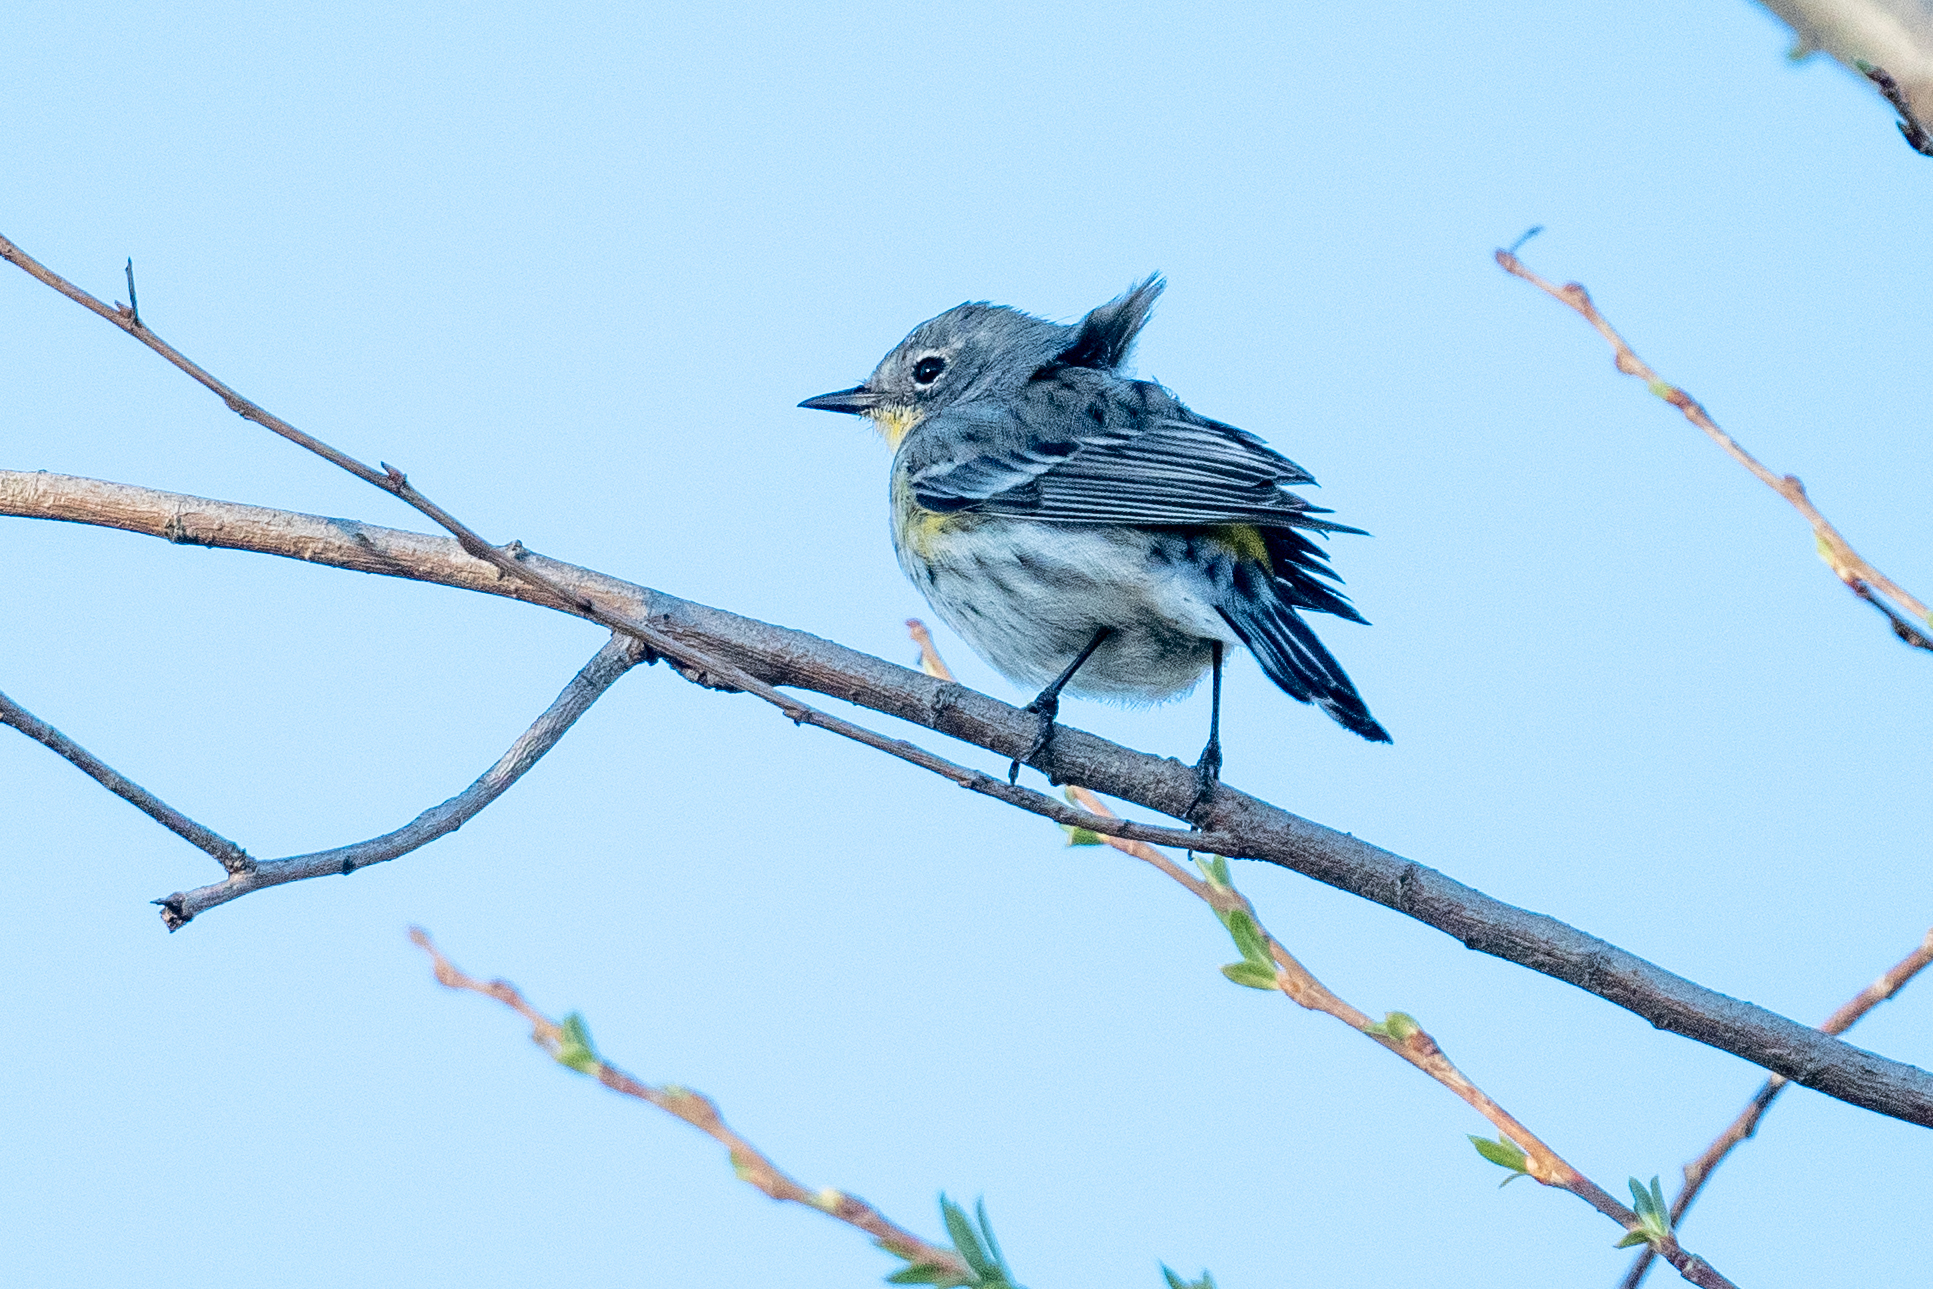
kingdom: Animalia
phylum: Chordata
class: Aves
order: Passeriformes
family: Parulidae
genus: Setophaga
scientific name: Setophaga coronata
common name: Myrtle warbler
